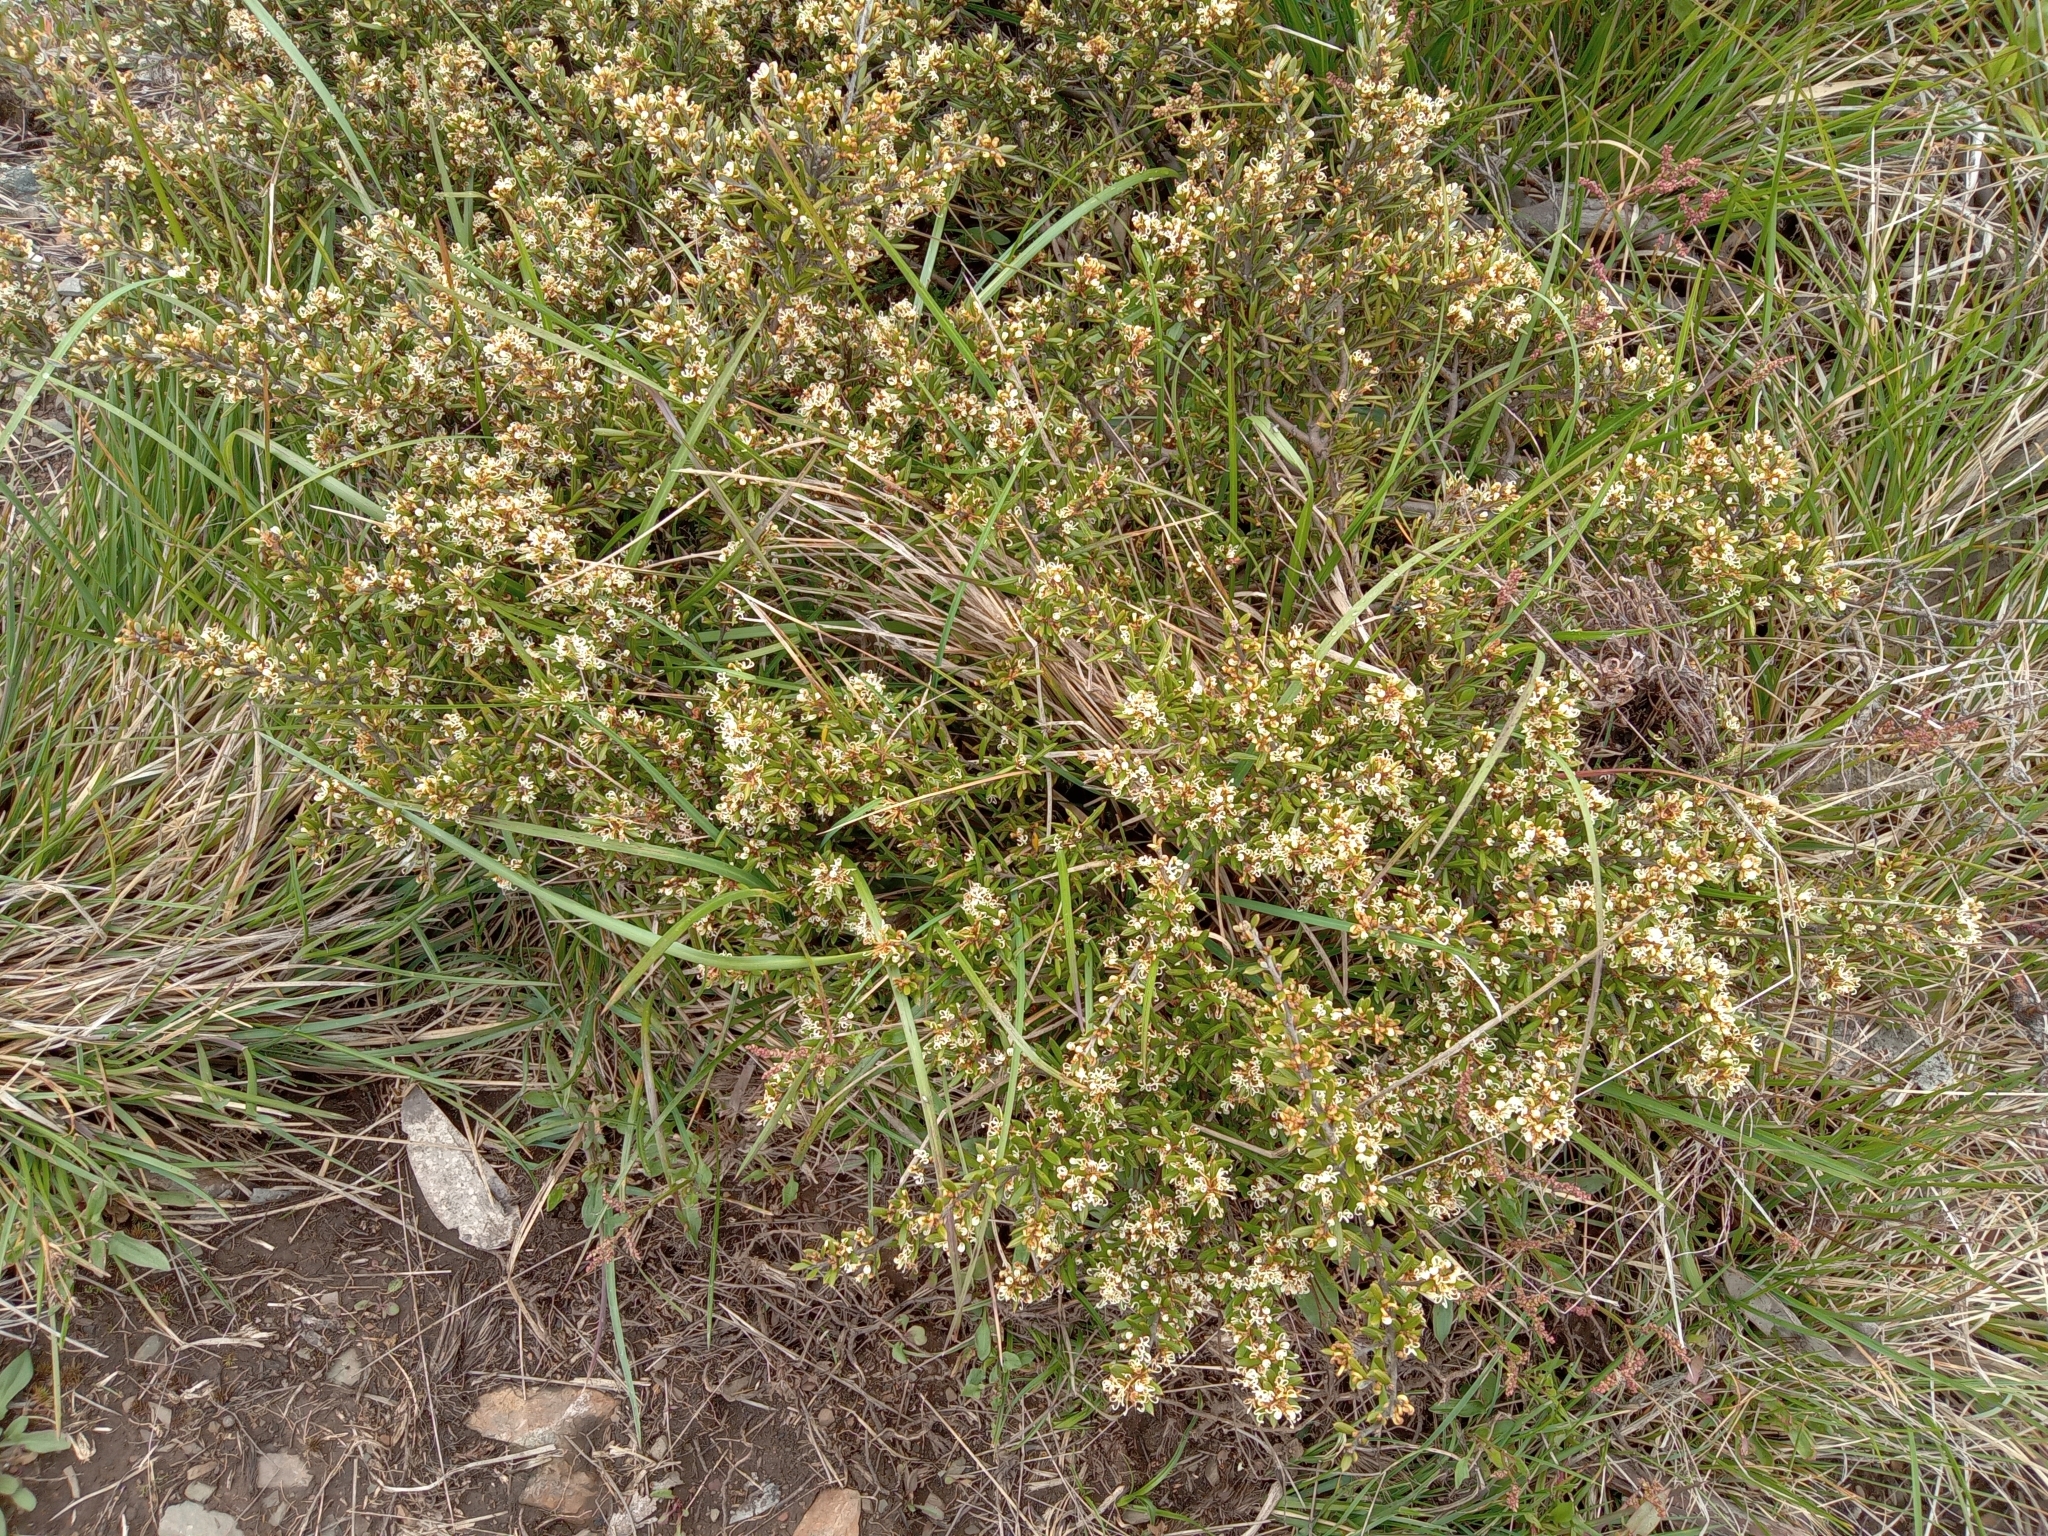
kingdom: Plantae
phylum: Tracheophyta
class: Magnoliopsida
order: Proteales
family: Proteaceae
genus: Grevillea
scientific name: Grevillea australis
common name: Alpine grevillea
